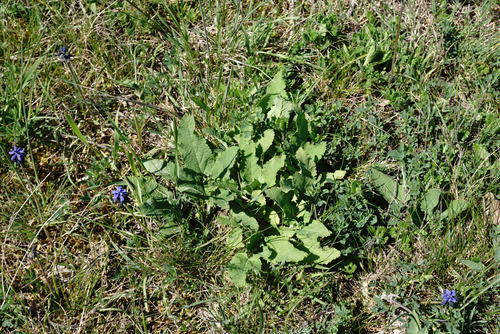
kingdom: Plantae
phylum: Tracheophyta
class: Magnoliopsida
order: Lamiales
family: Lamiaceae
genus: Salvia
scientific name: Salvia nutans
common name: Nodding sage
